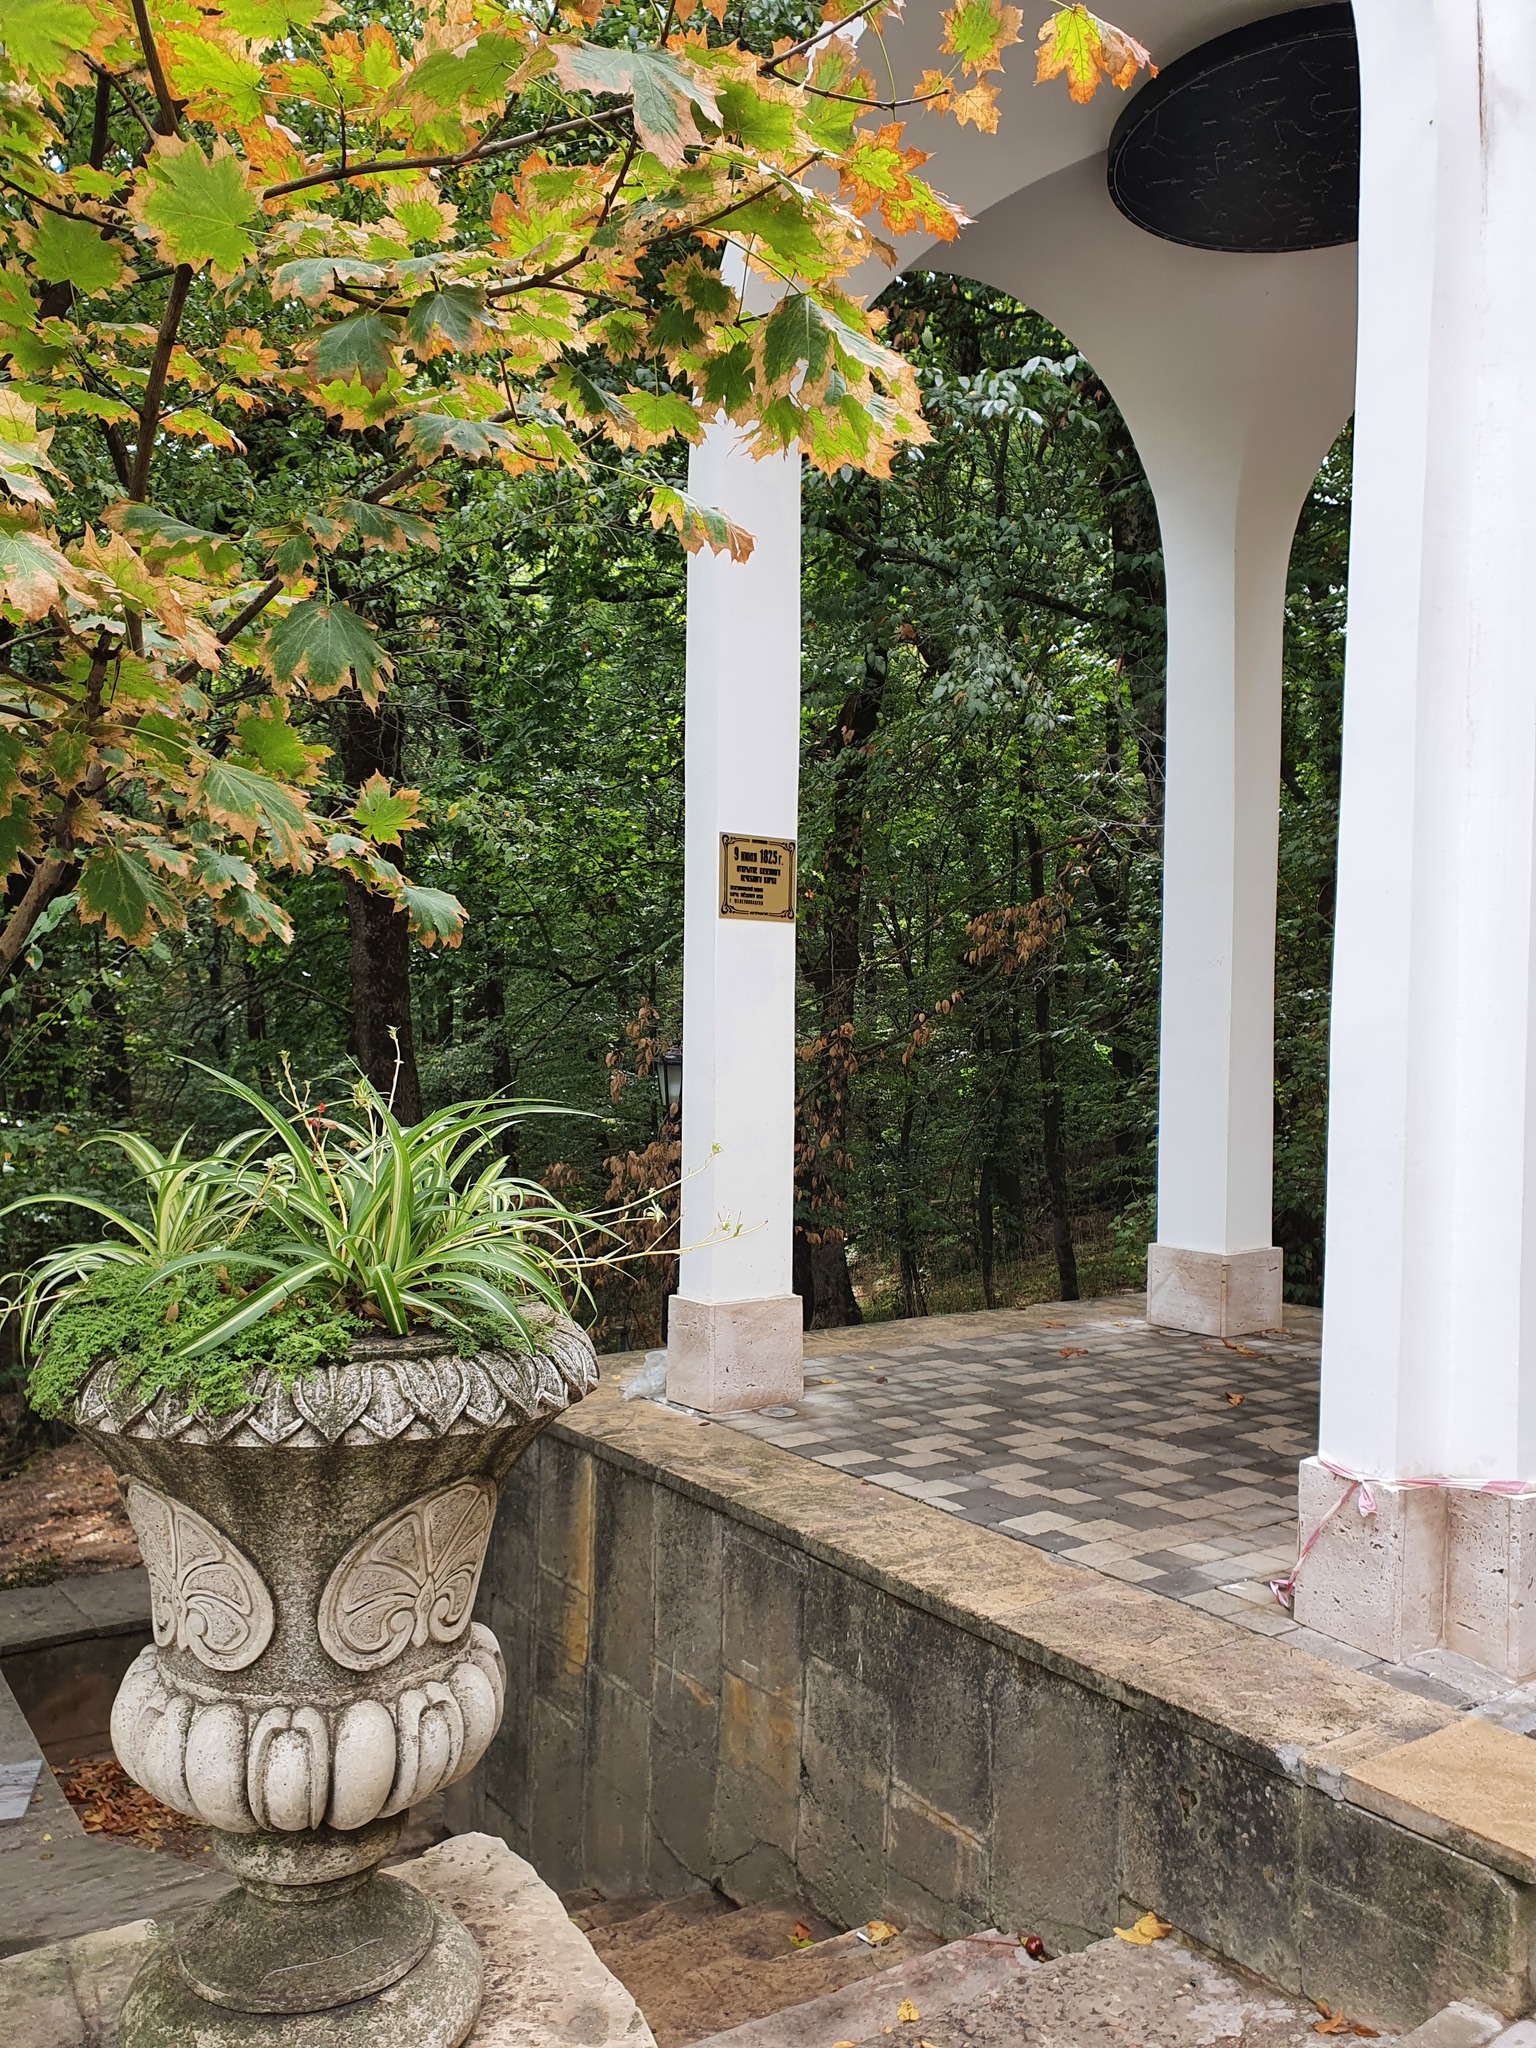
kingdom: Plantae
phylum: Tracheophyta
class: Magnoliopsida
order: Sapindales
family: Sapindaceae
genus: Acer
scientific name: Acer platanoides
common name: Norway maple
